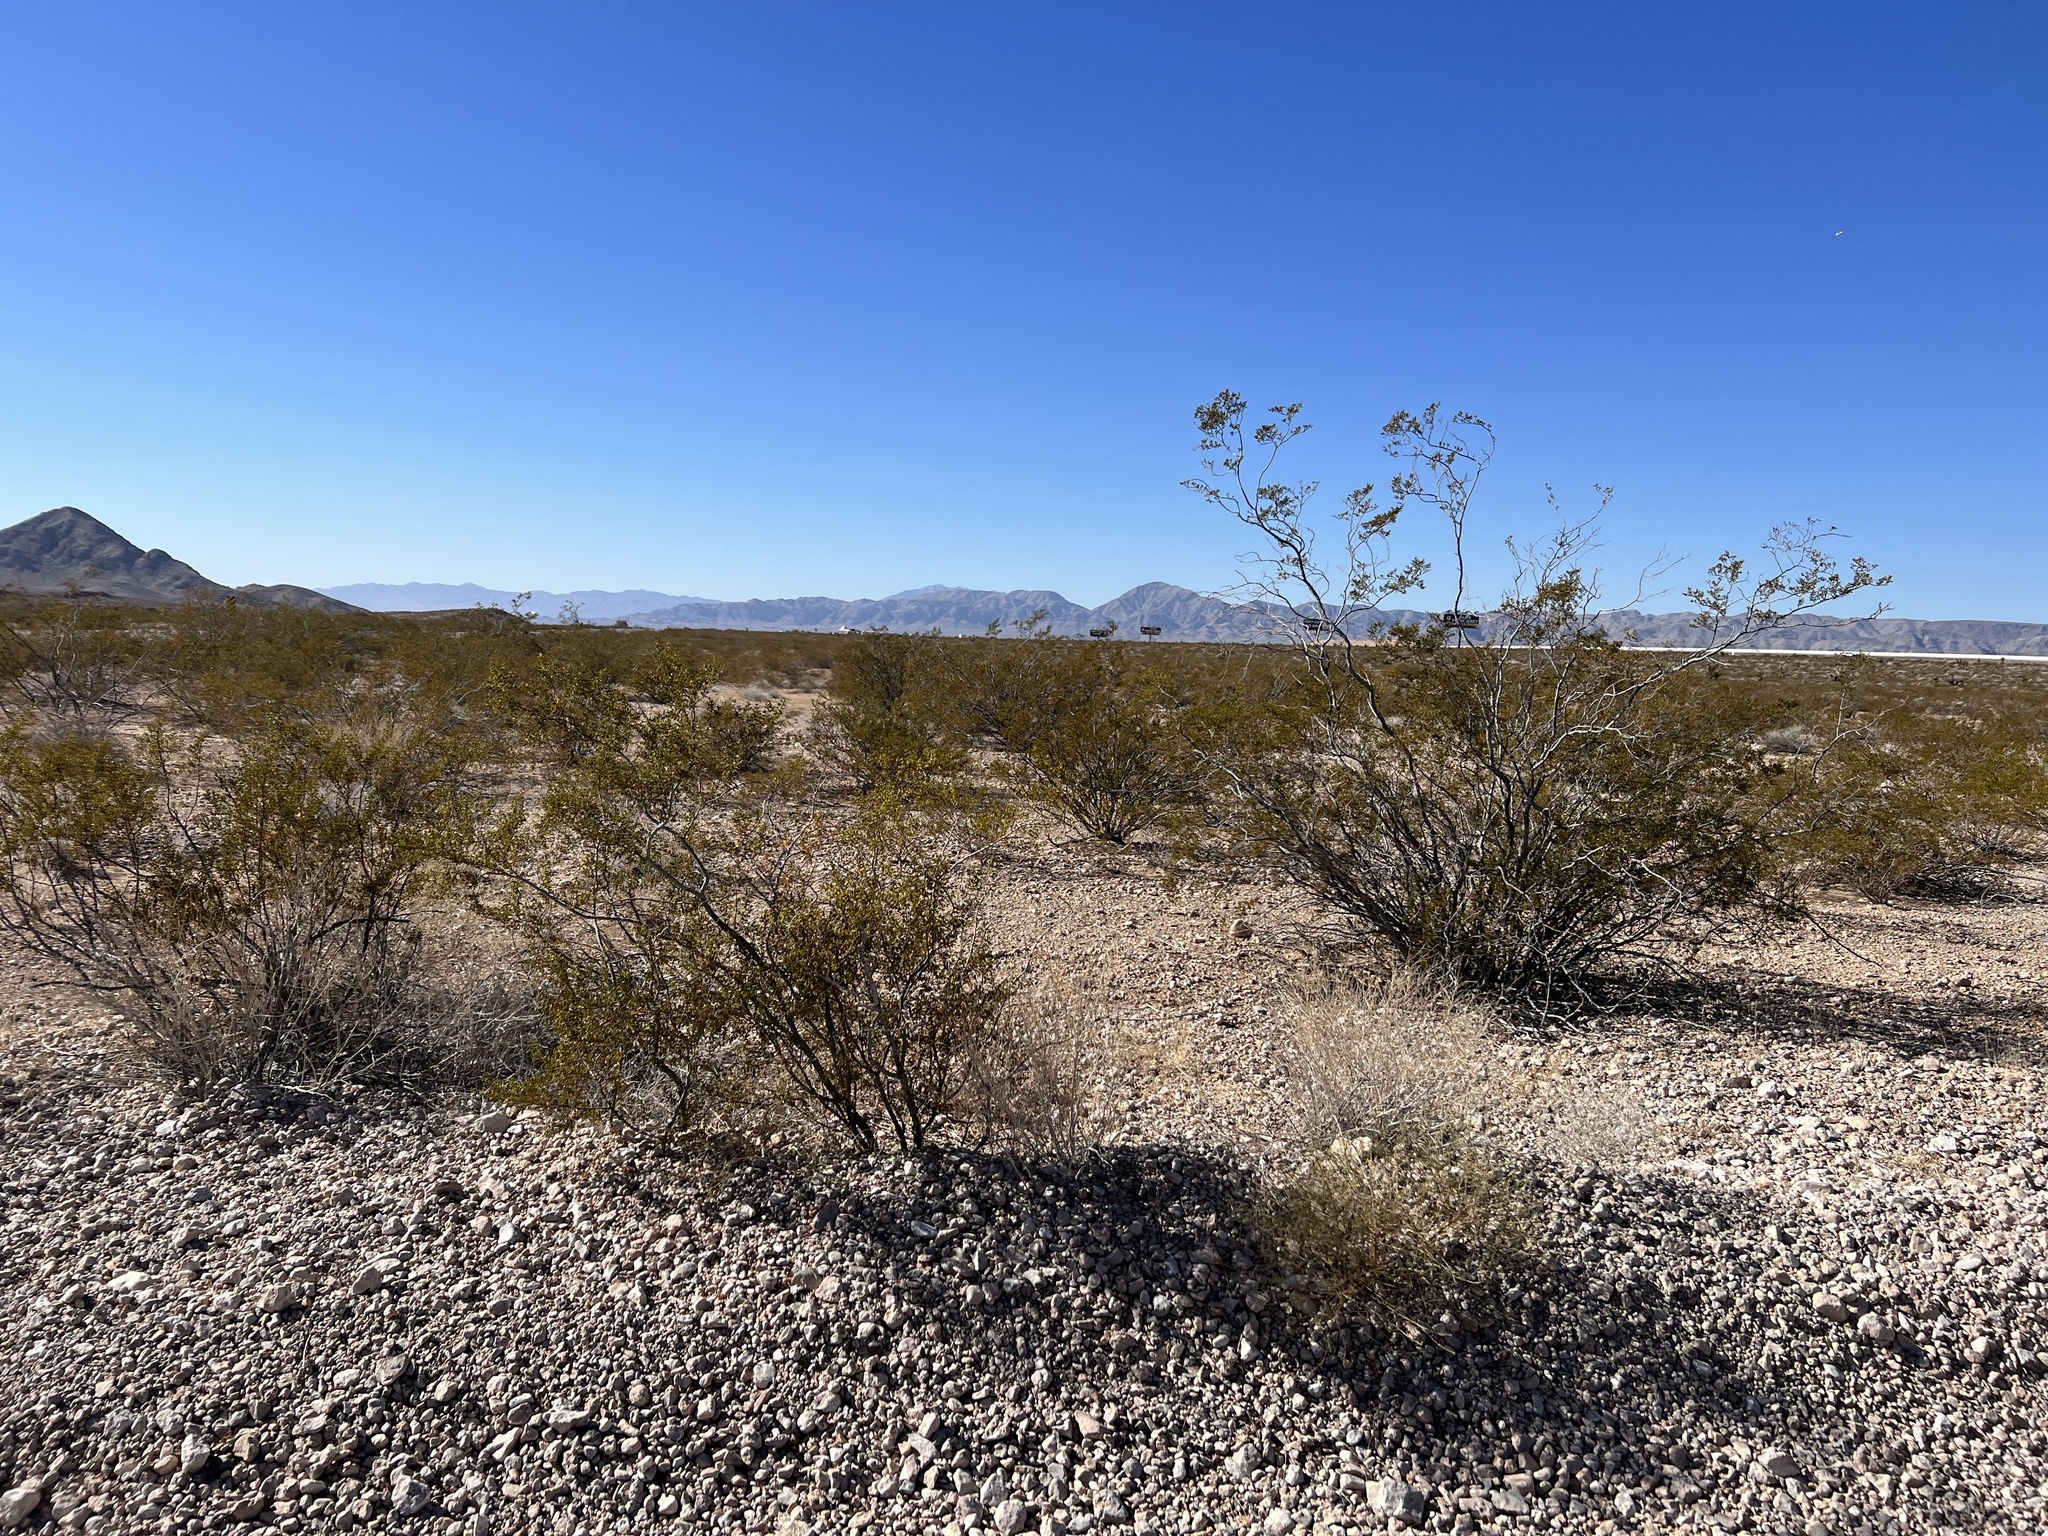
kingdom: Plantae
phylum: Tracheophyta
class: Magnoliopsida
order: Zygophyllales
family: Zygophyllaceae
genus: Larrea
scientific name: Larrea tridentata
